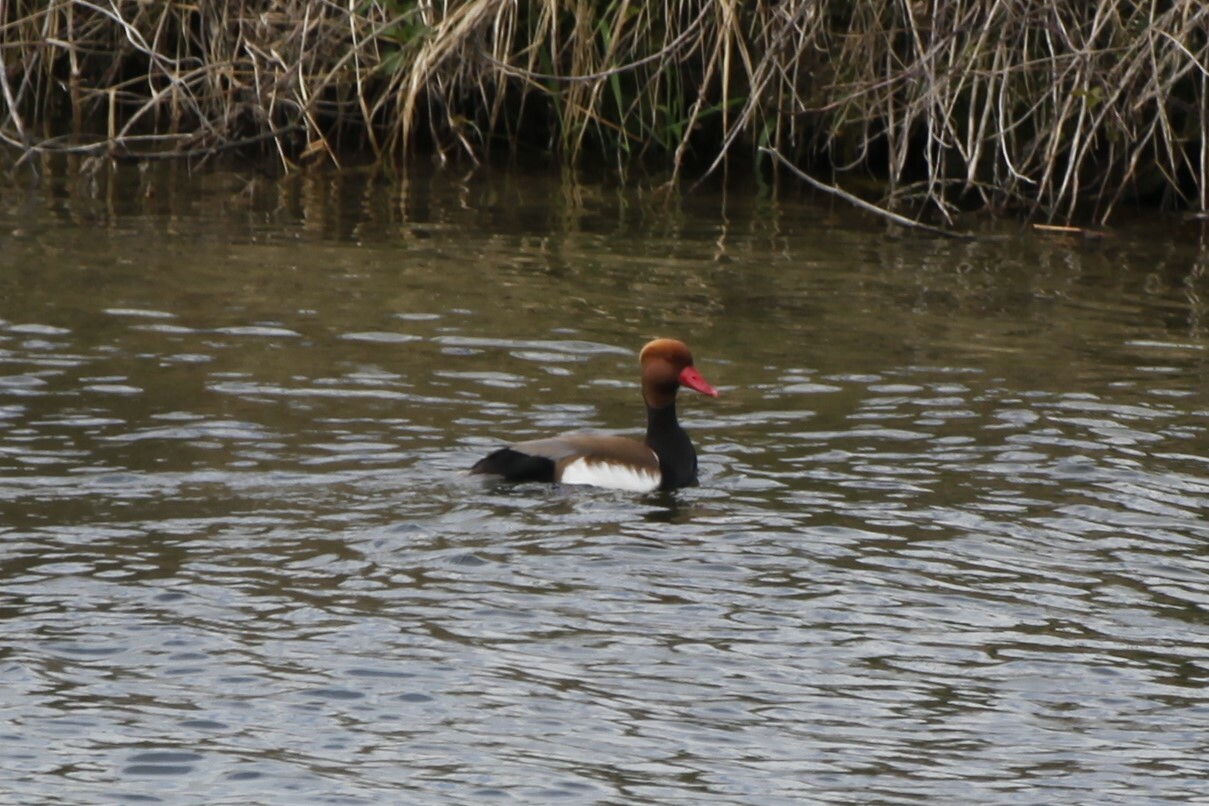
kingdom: Animalia
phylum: Chordata
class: Aves
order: Anseriformes
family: Anatidae
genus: Netta
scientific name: Netta rufina
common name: Red-crested pochard
